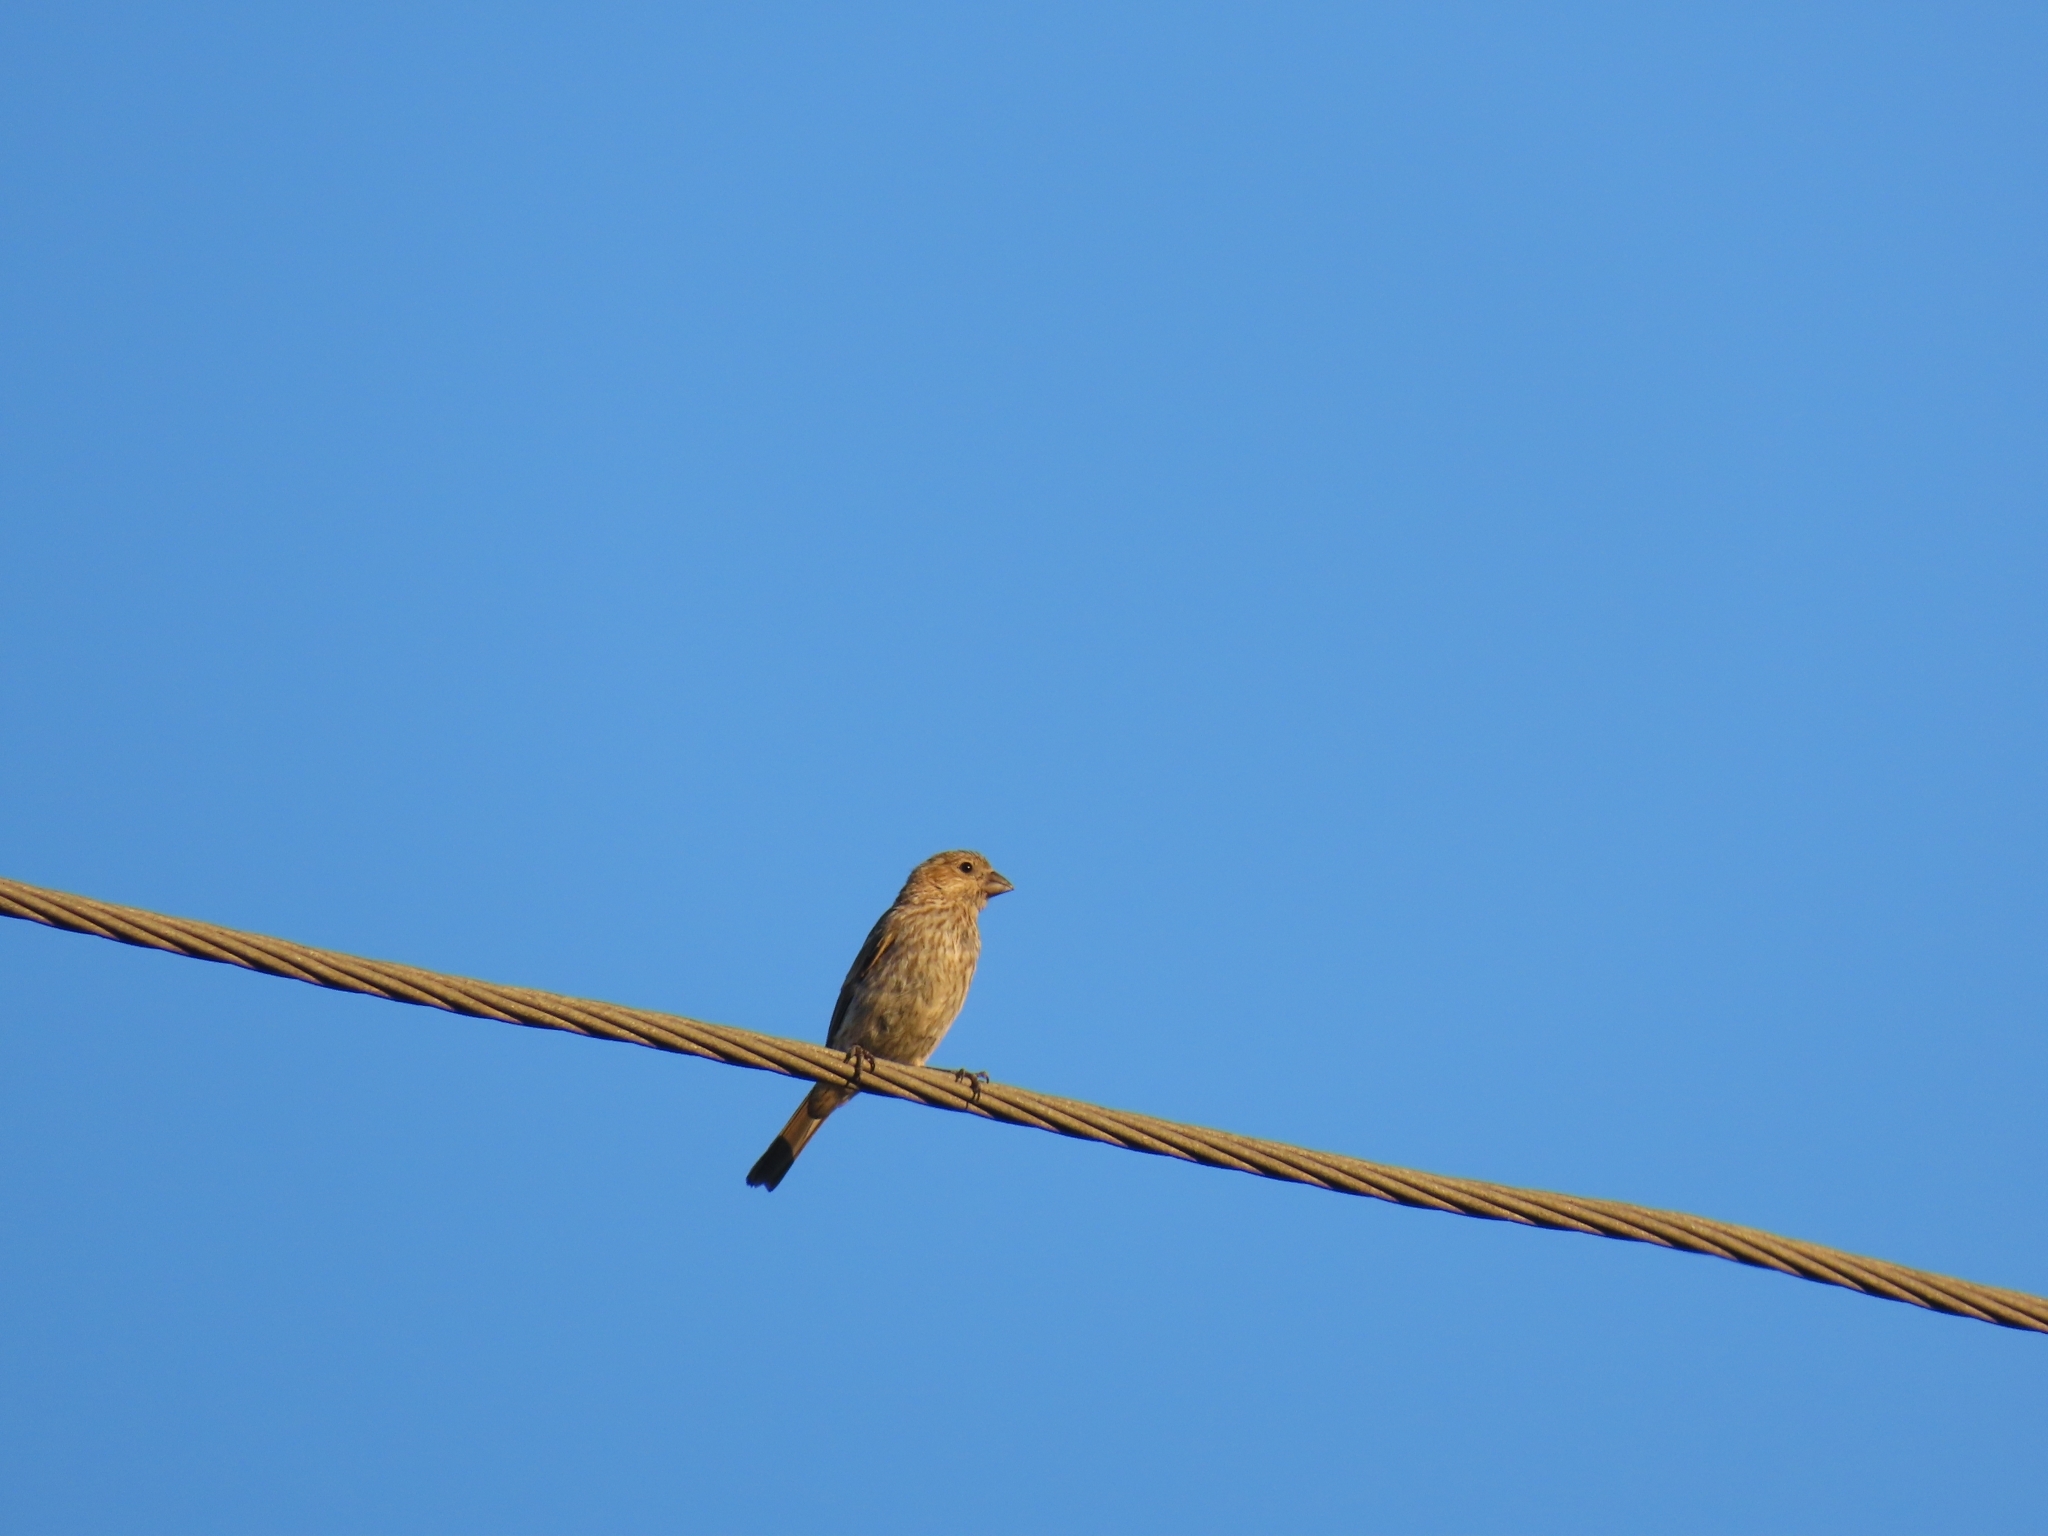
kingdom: Animalia
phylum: Chordata
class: Aves
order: Passeriformes
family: Fringillidae
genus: Haemorhous
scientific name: Haemorhous mexicanus
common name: House finch
